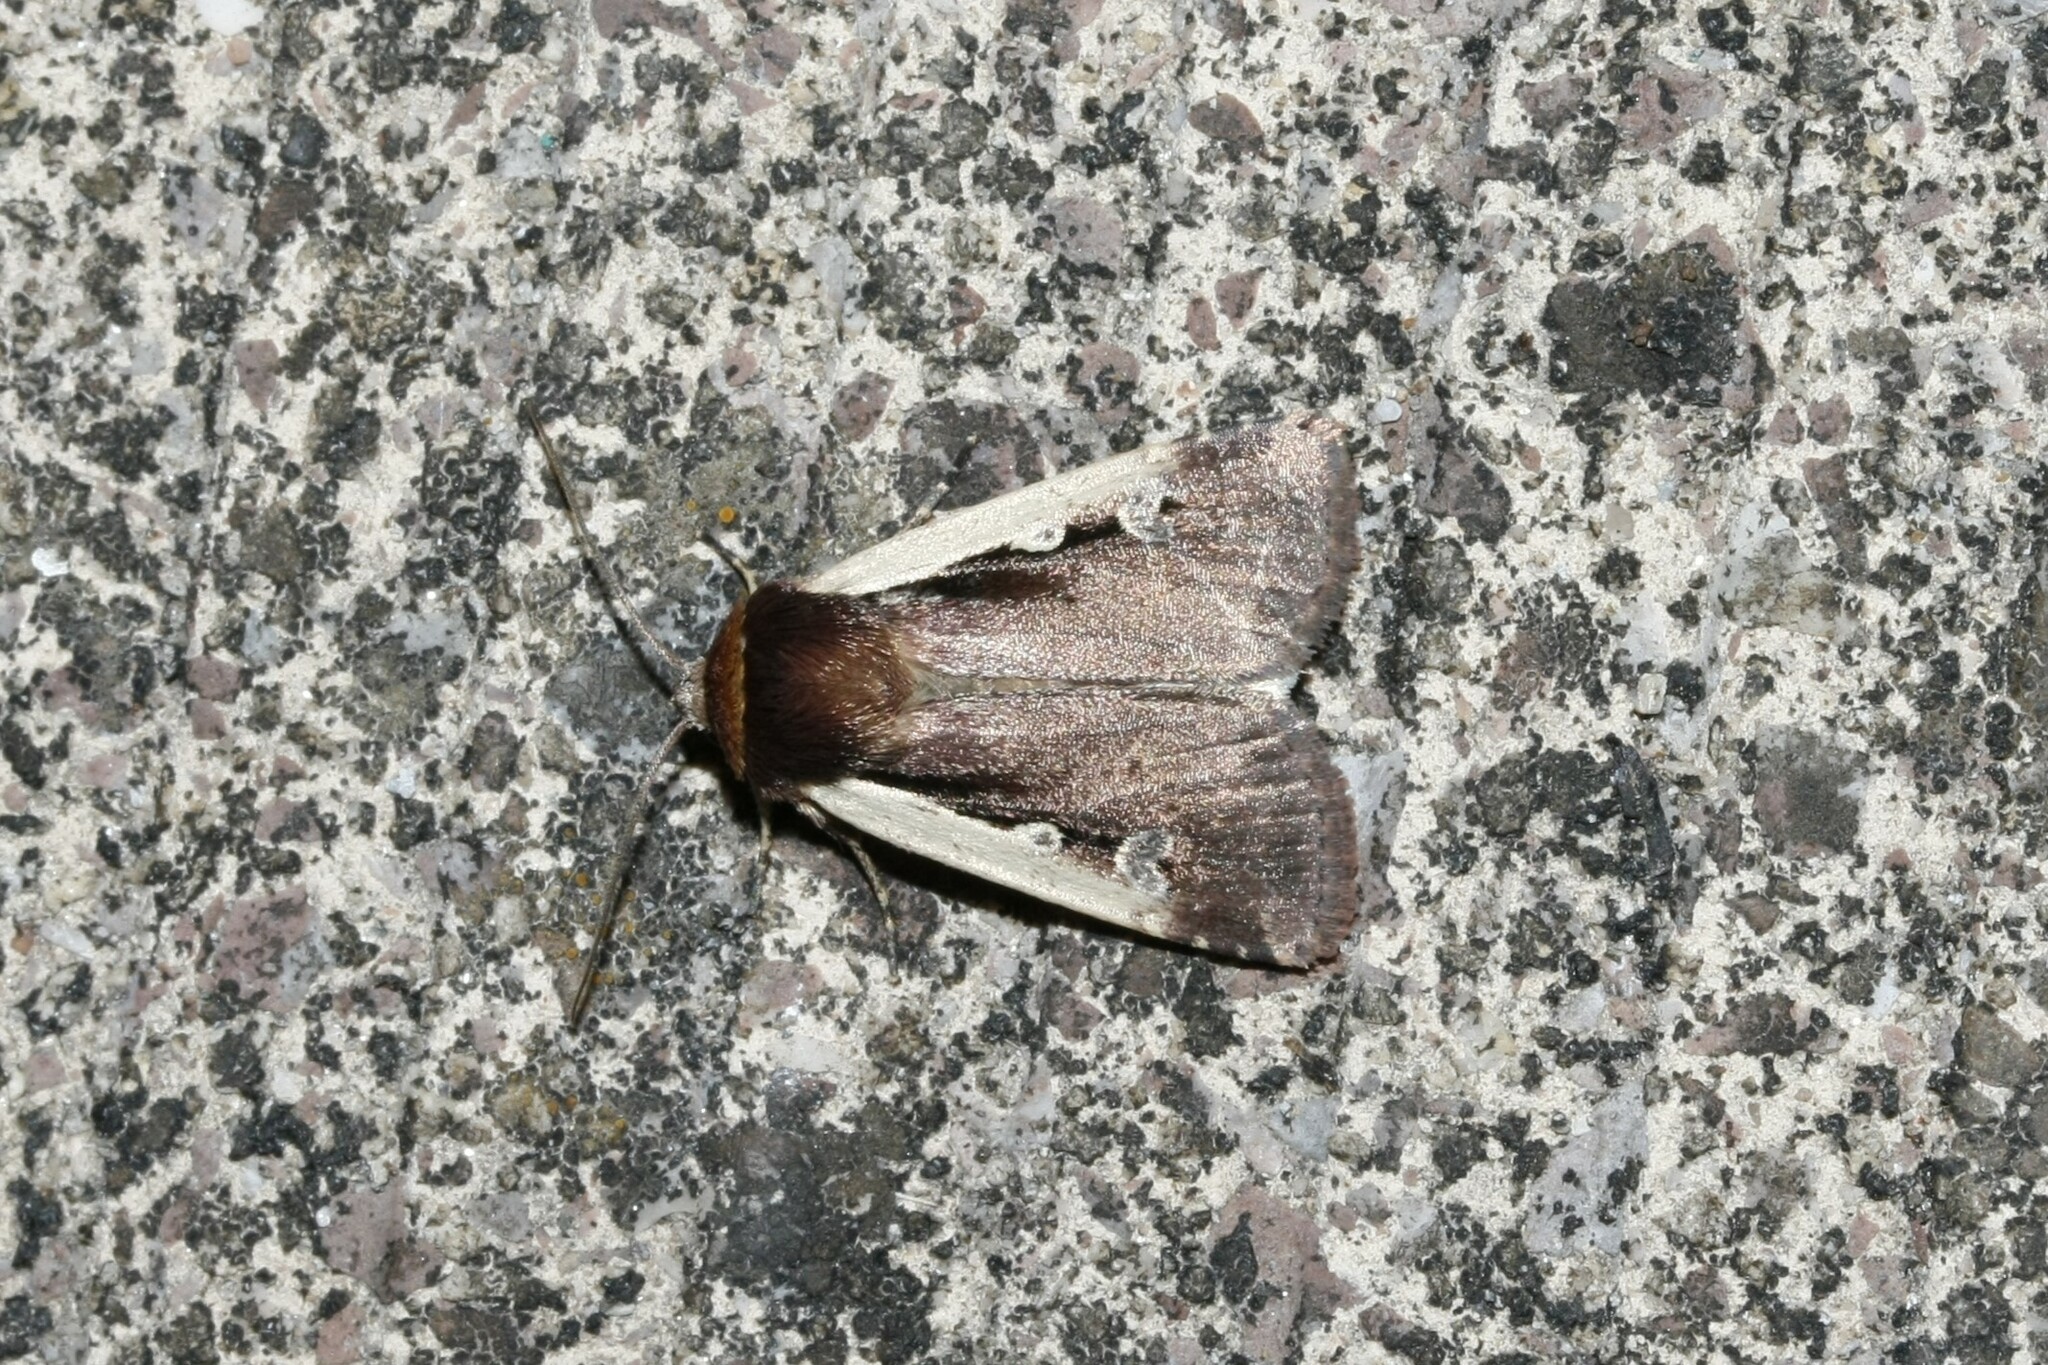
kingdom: Animalia
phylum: Arthropoda
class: Insecta
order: Lepidoptera
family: Noctuidae
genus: Ochropleura
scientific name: Ochropleura plecta
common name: Flame shoulder
